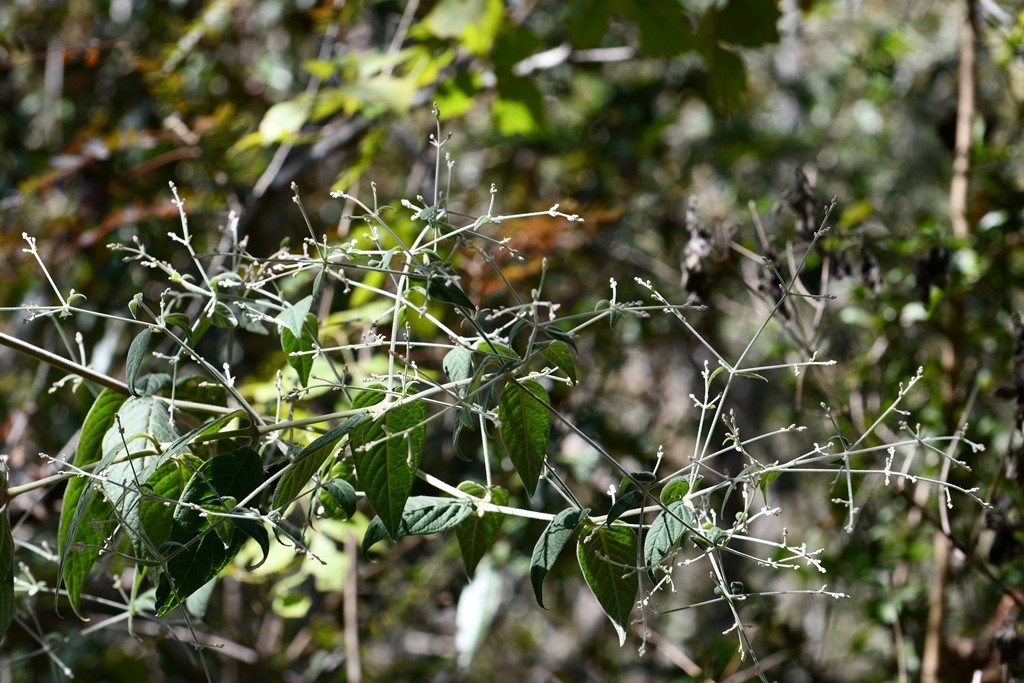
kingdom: Plantae
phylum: Tracheophyta
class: Magnoliopsida
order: Caryophyllales
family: Amaranthaceae
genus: Iresine
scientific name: Iresine latifolia
